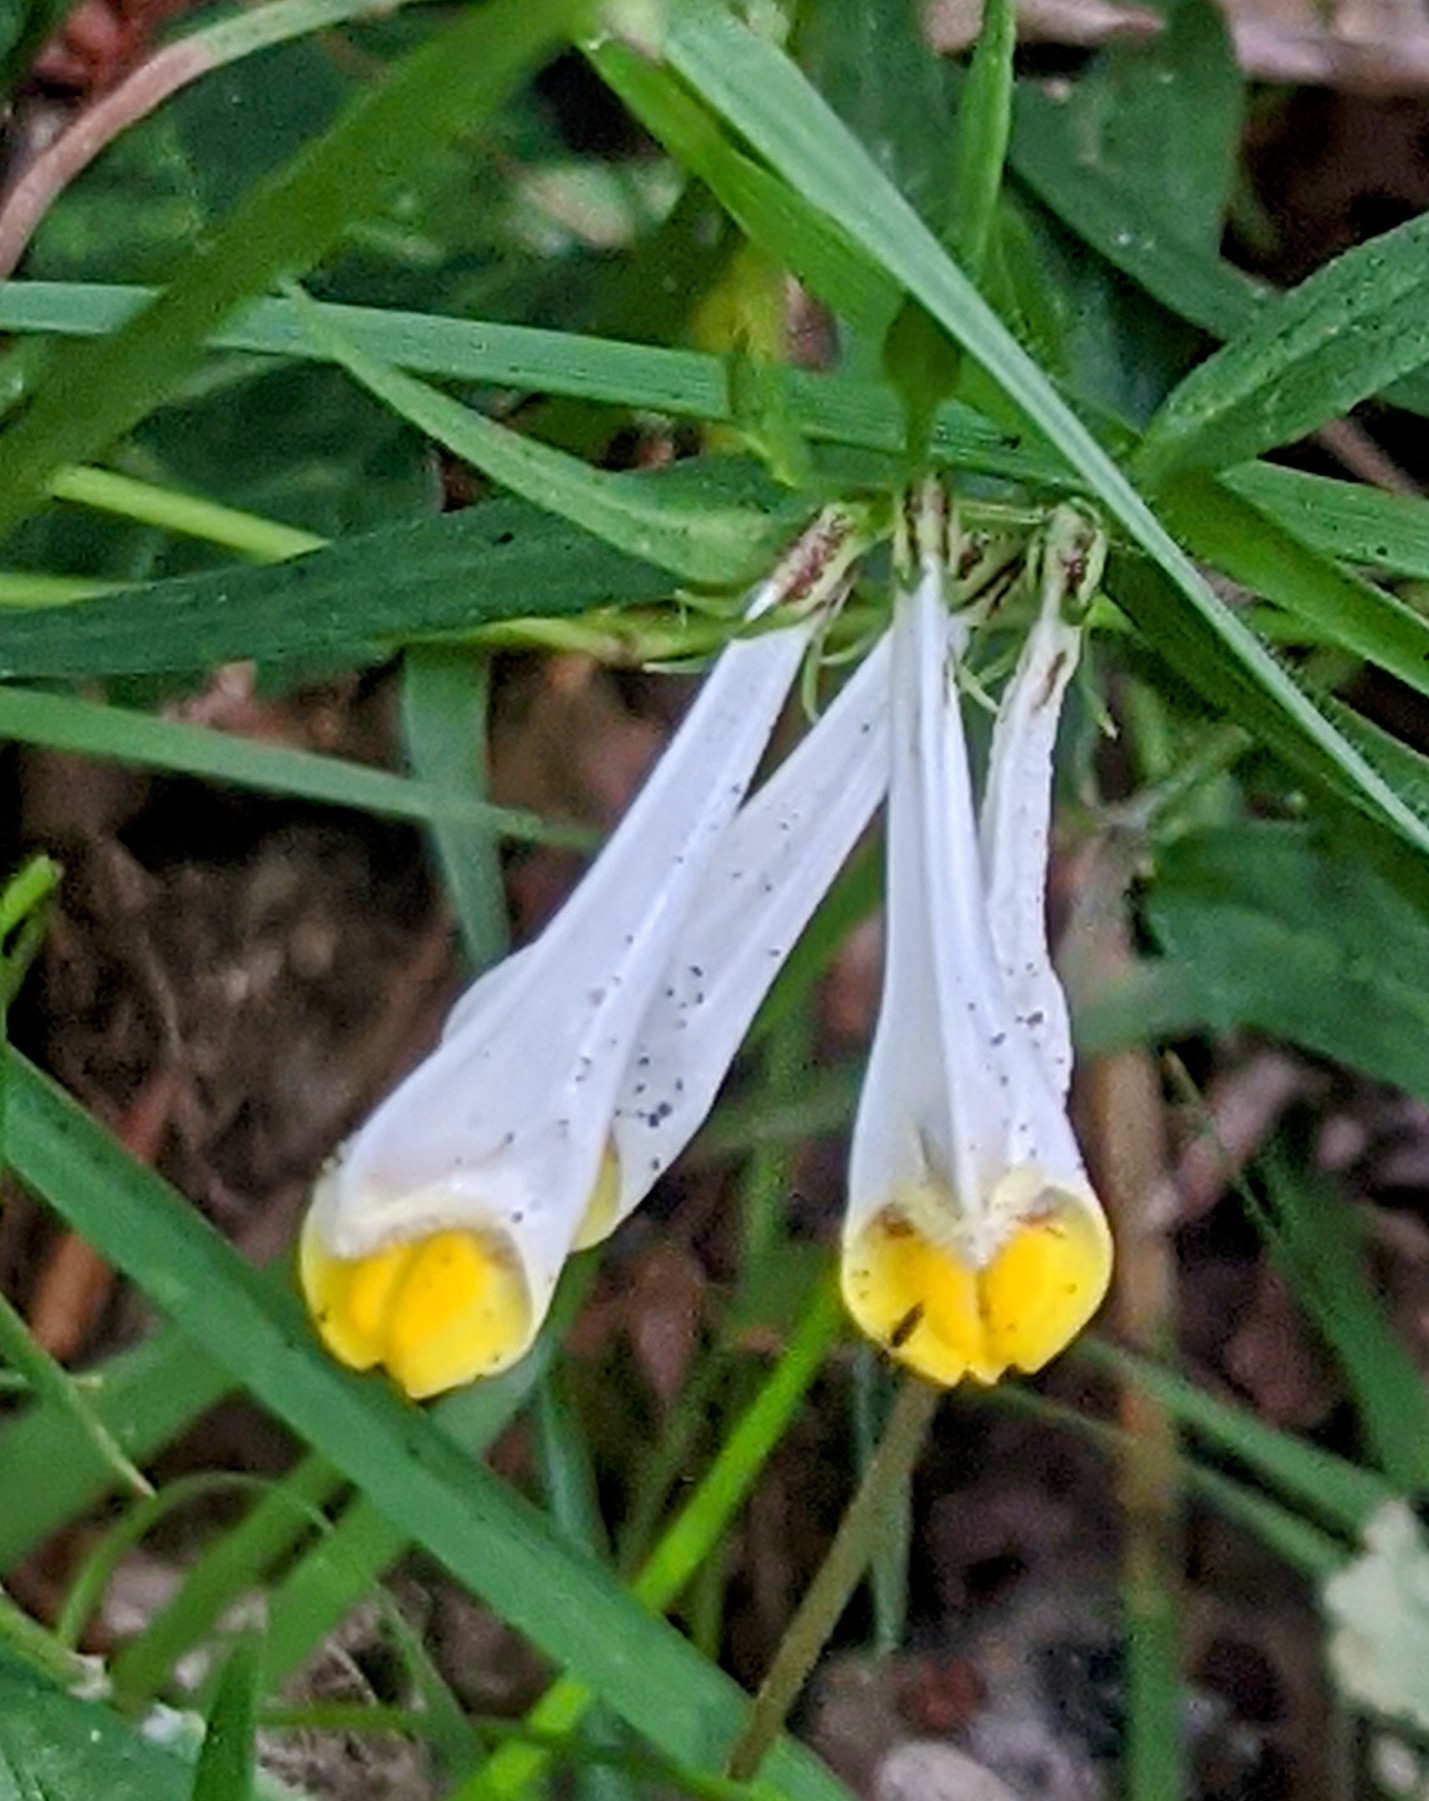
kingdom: Plantae
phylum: Tracheophyta
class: Magnoliopsida
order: Lamiales
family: Orobanchaceae
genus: Melampyrum
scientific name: Melampyrum pratense
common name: Common cow-wheat
